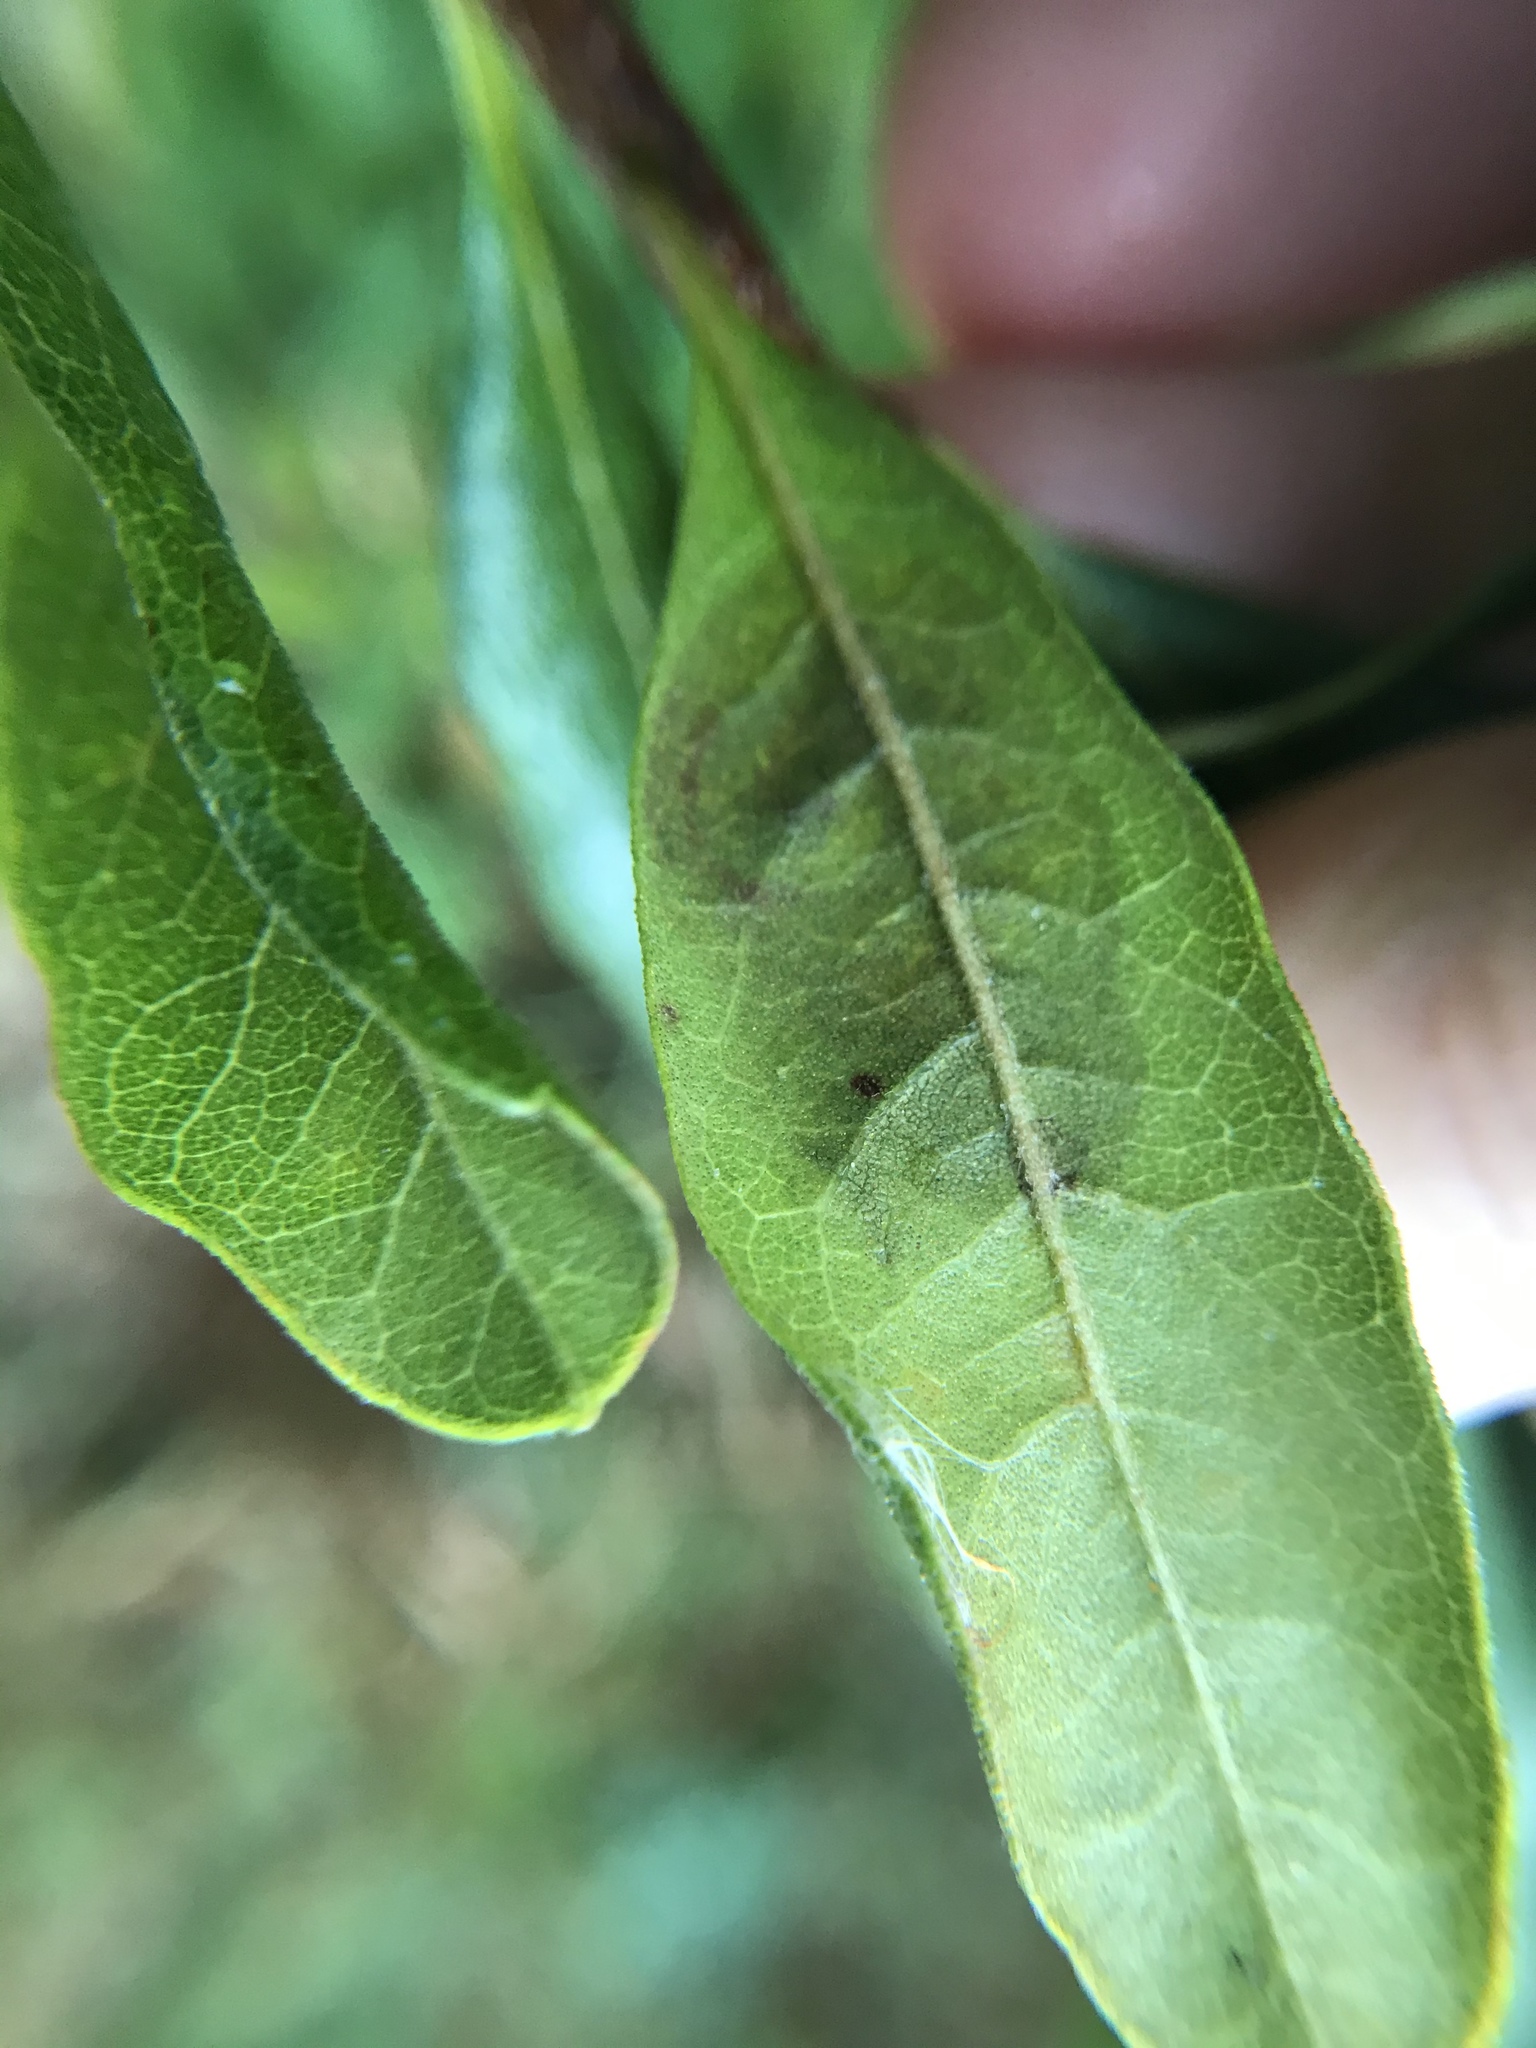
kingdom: Animalia
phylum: Arthropoda
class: Insecta
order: Lepidoptera
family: Gracillariidae
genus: Cameraria
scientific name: Cameraria picturatella
